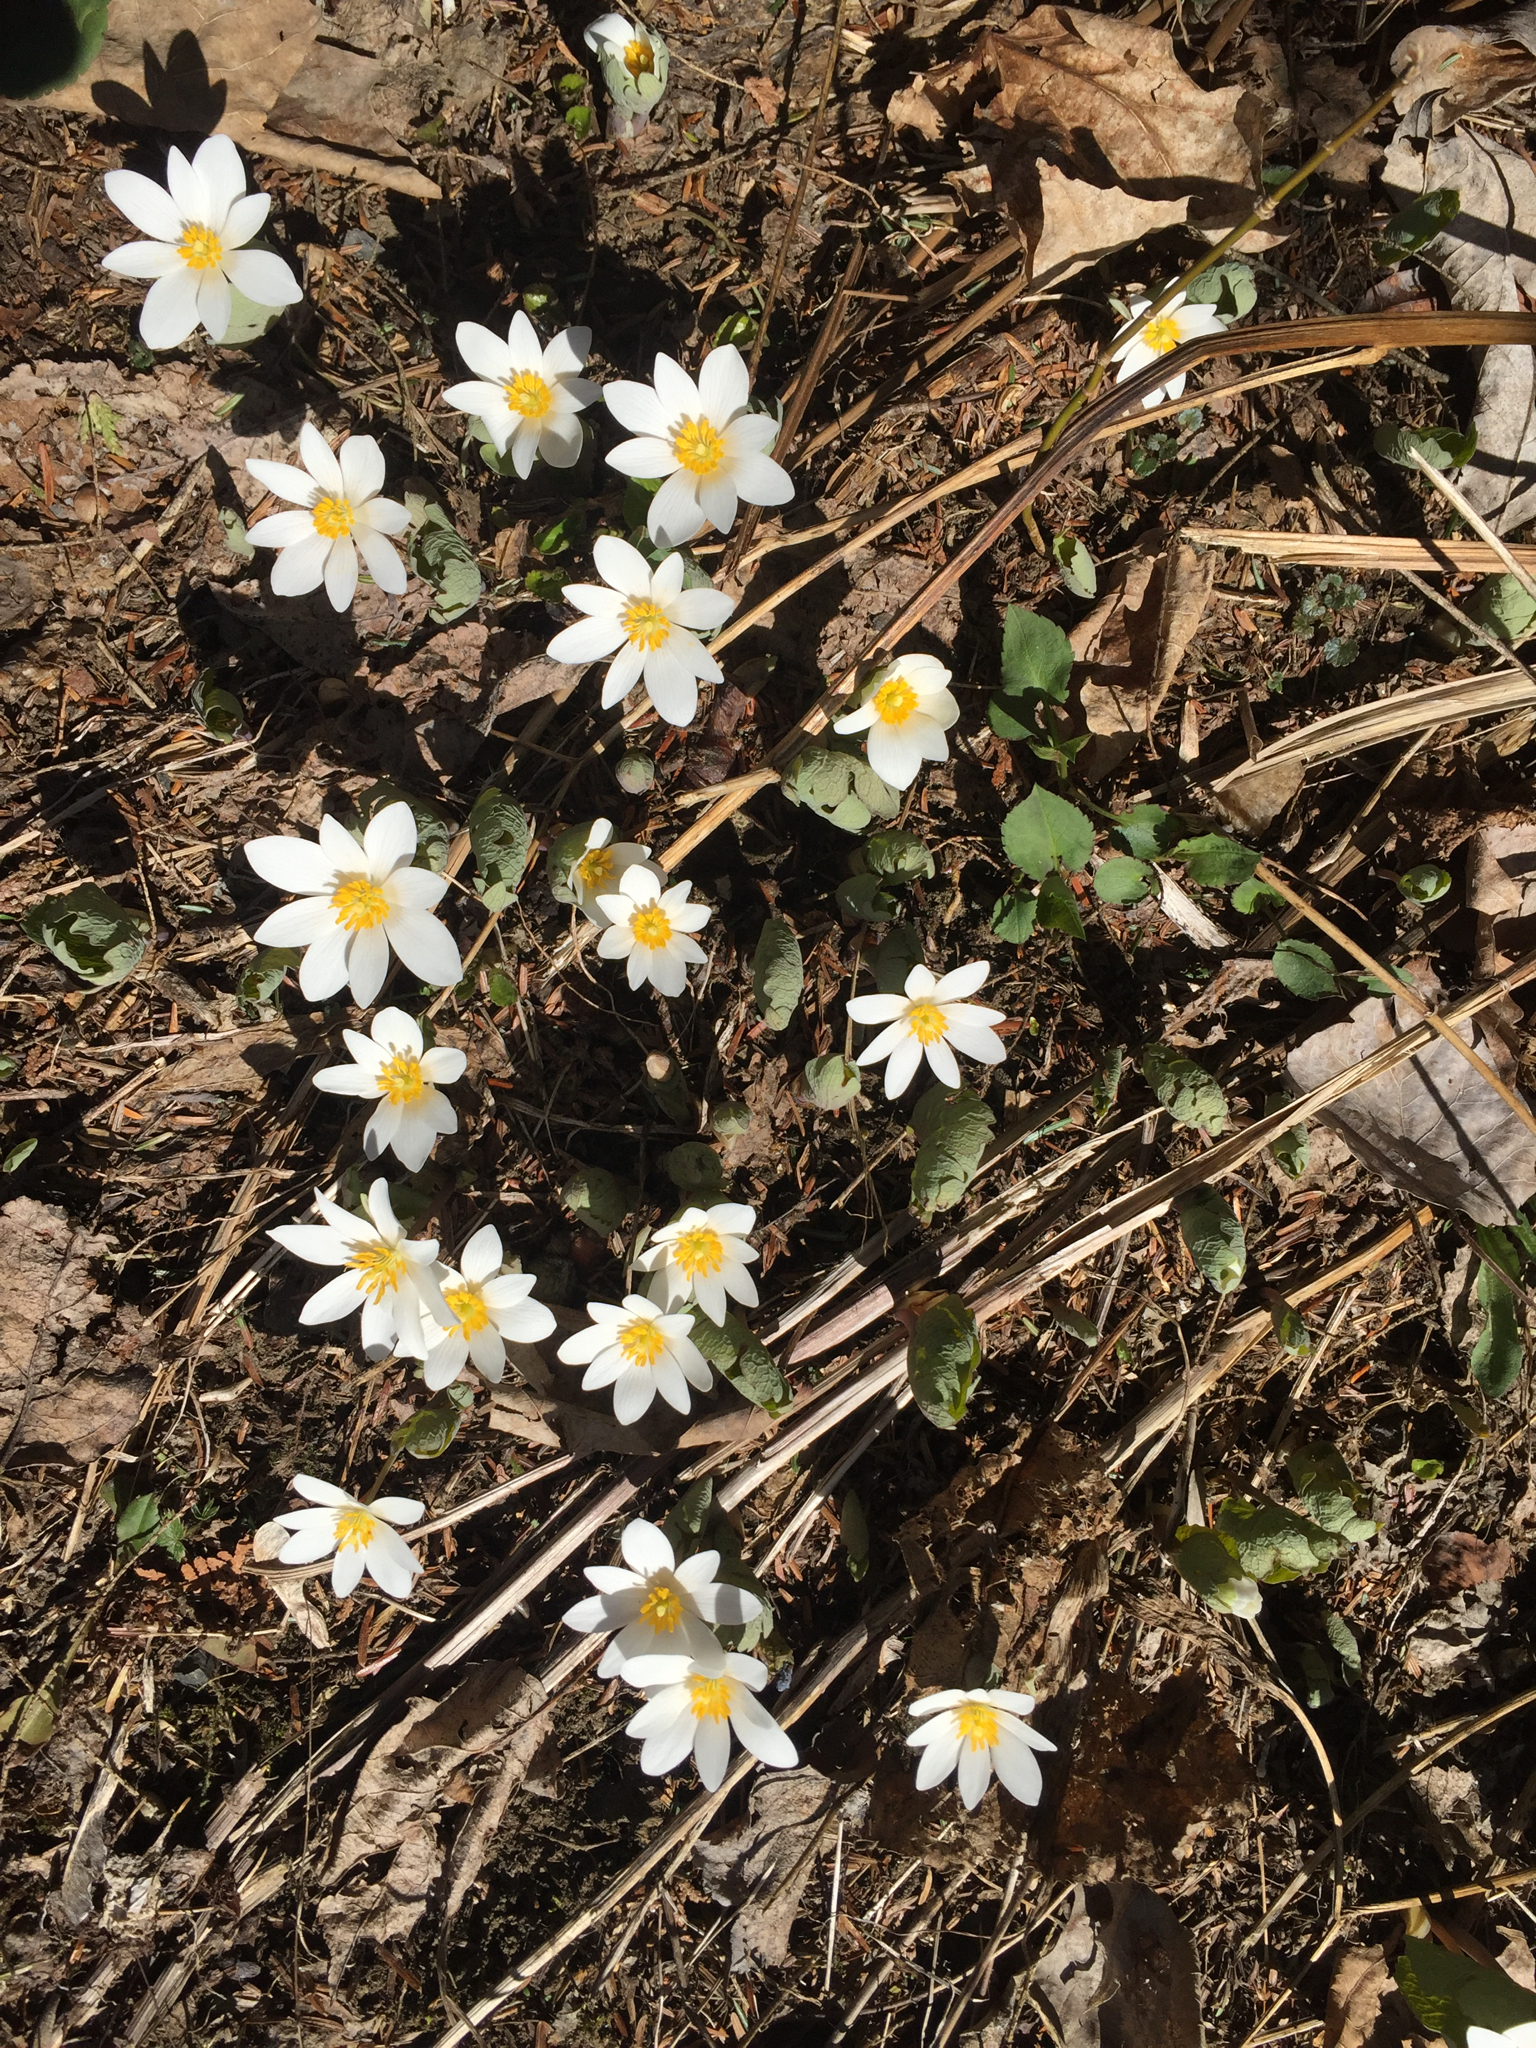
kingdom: Plantae
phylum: Tracheophyta
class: Magnoliopsida
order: Ranunculales
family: Papaveraceae
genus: Sanguinaria
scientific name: Sanguinaria canadensis
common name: Bloodroot
